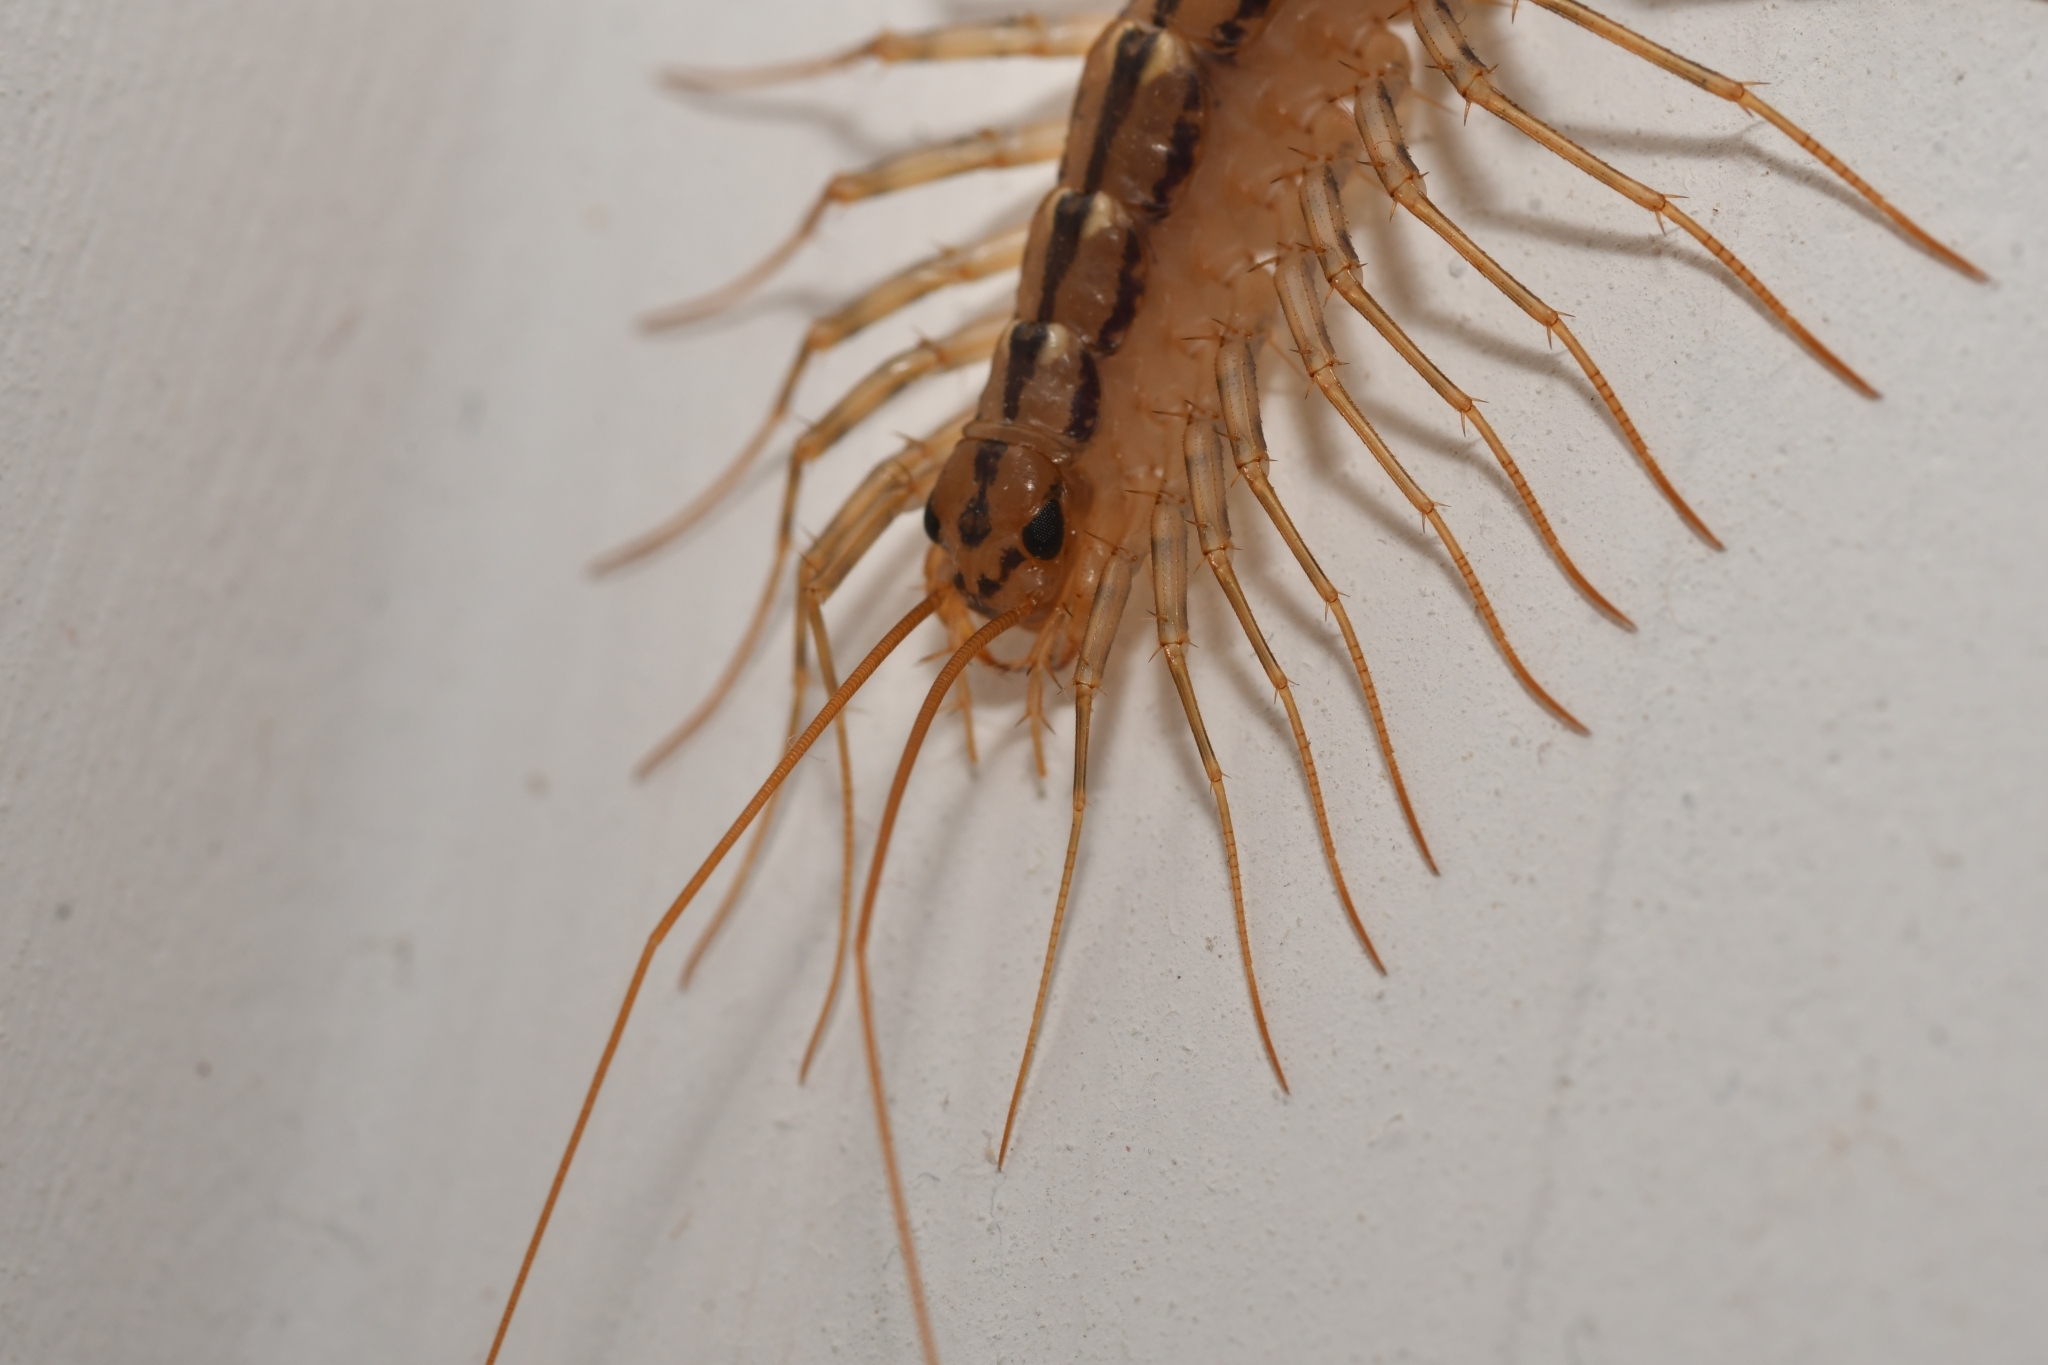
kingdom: Animalia
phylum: Arthropoda
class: Chilopoda
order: Scutigeromorpha
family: Scutigeridae
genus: Scutigera
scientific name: Scutigera coleoptrata
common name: House centipede
